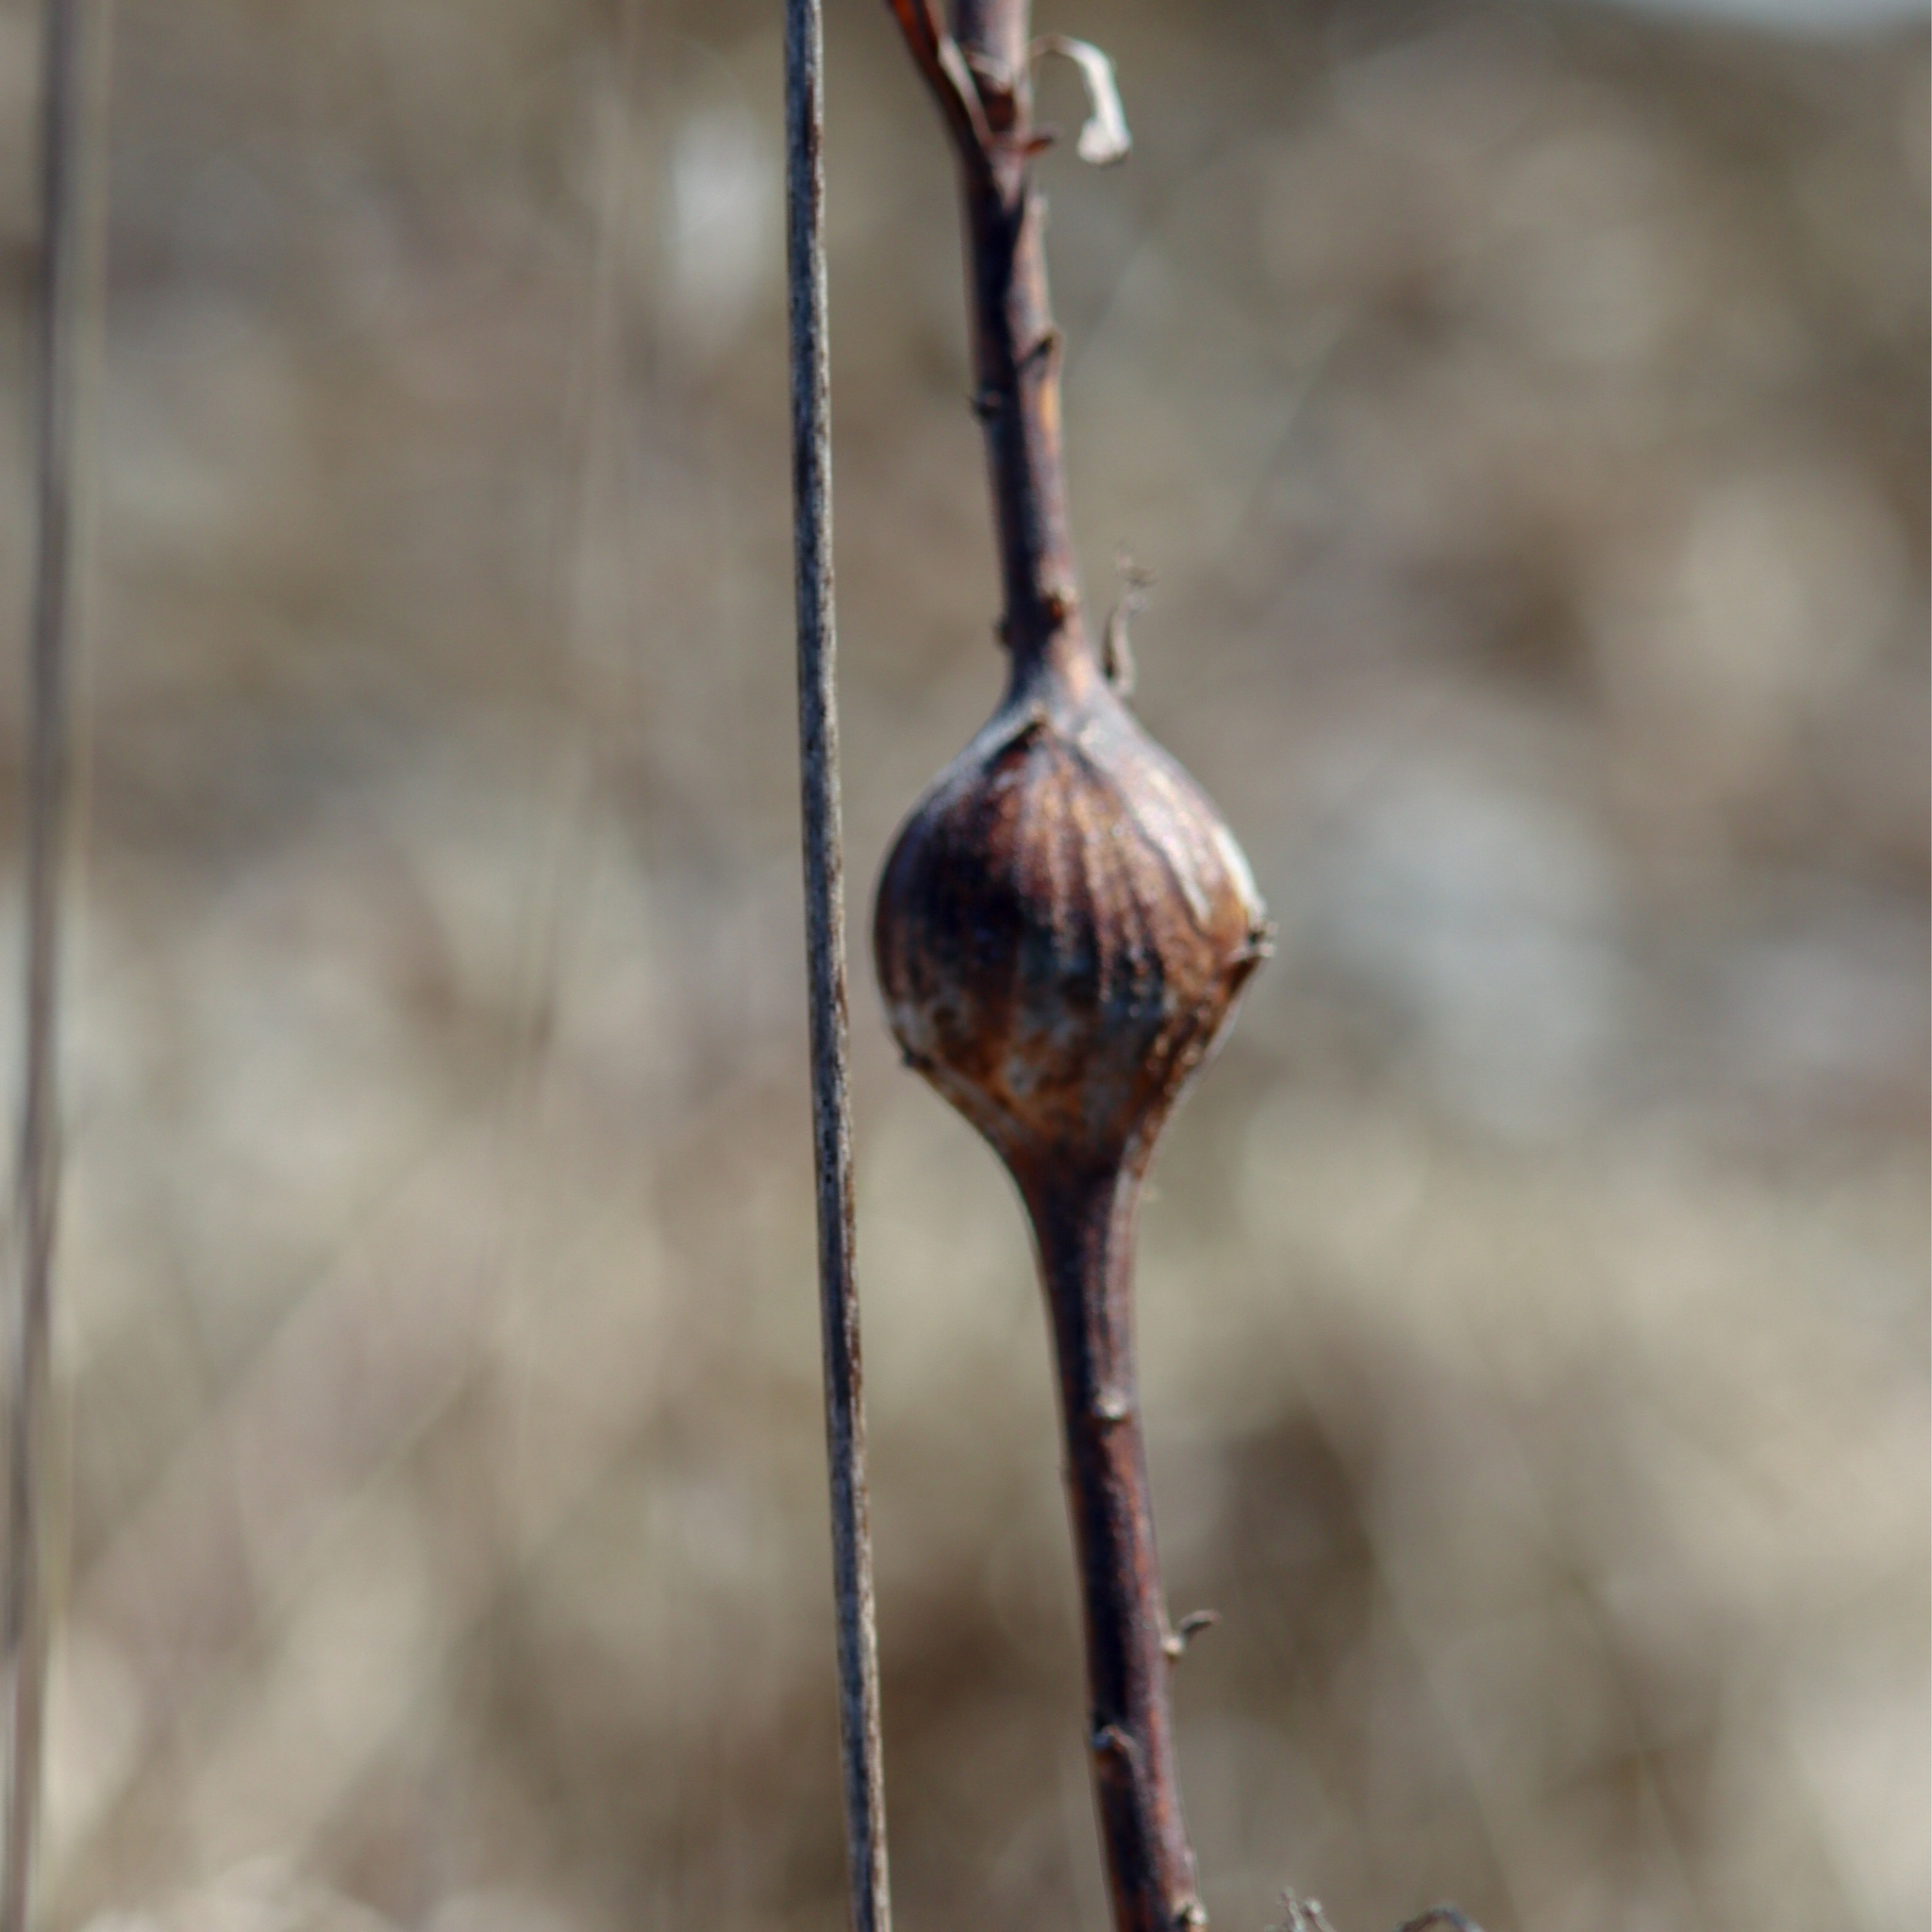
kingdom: Animalia
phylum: Arthropoda
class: Insecta
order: Diptera
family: Tephritidae
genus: Eurosta
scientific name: Eurosta solidaginis
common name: Goldenrod gall fly
